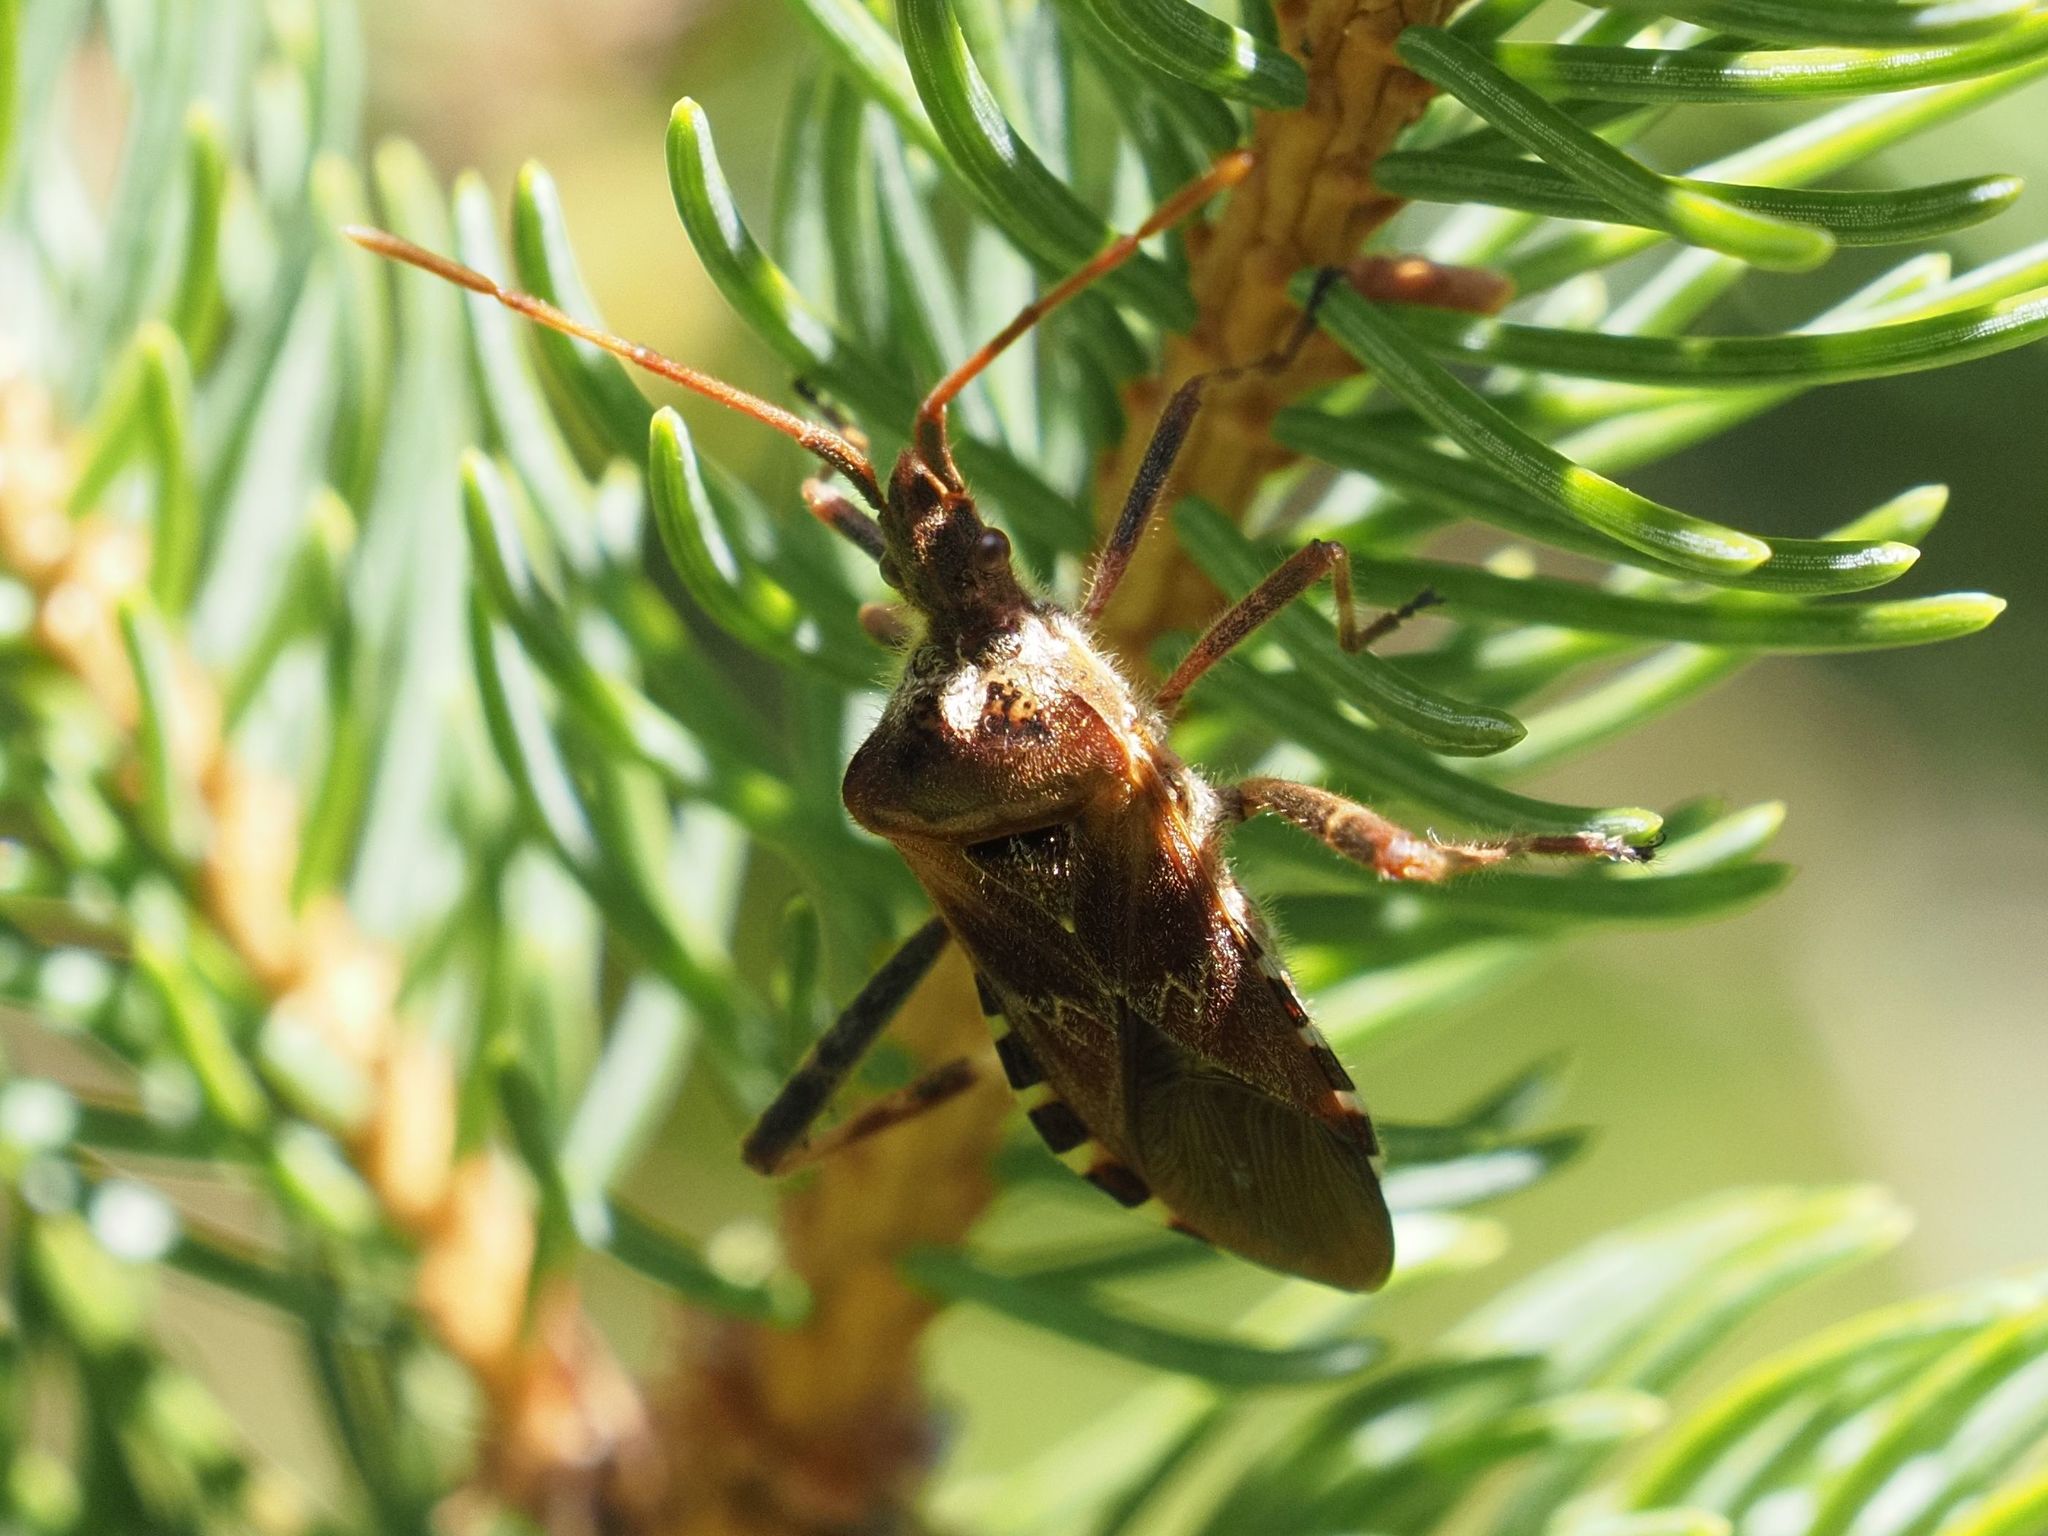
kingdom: Animalia
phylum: Arthropoda
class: Insecta
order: Hemiptera
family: Coreidae
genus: Leptoglossus
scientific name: Leptoglossus occidentalis
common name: Western conifer-seed bug
